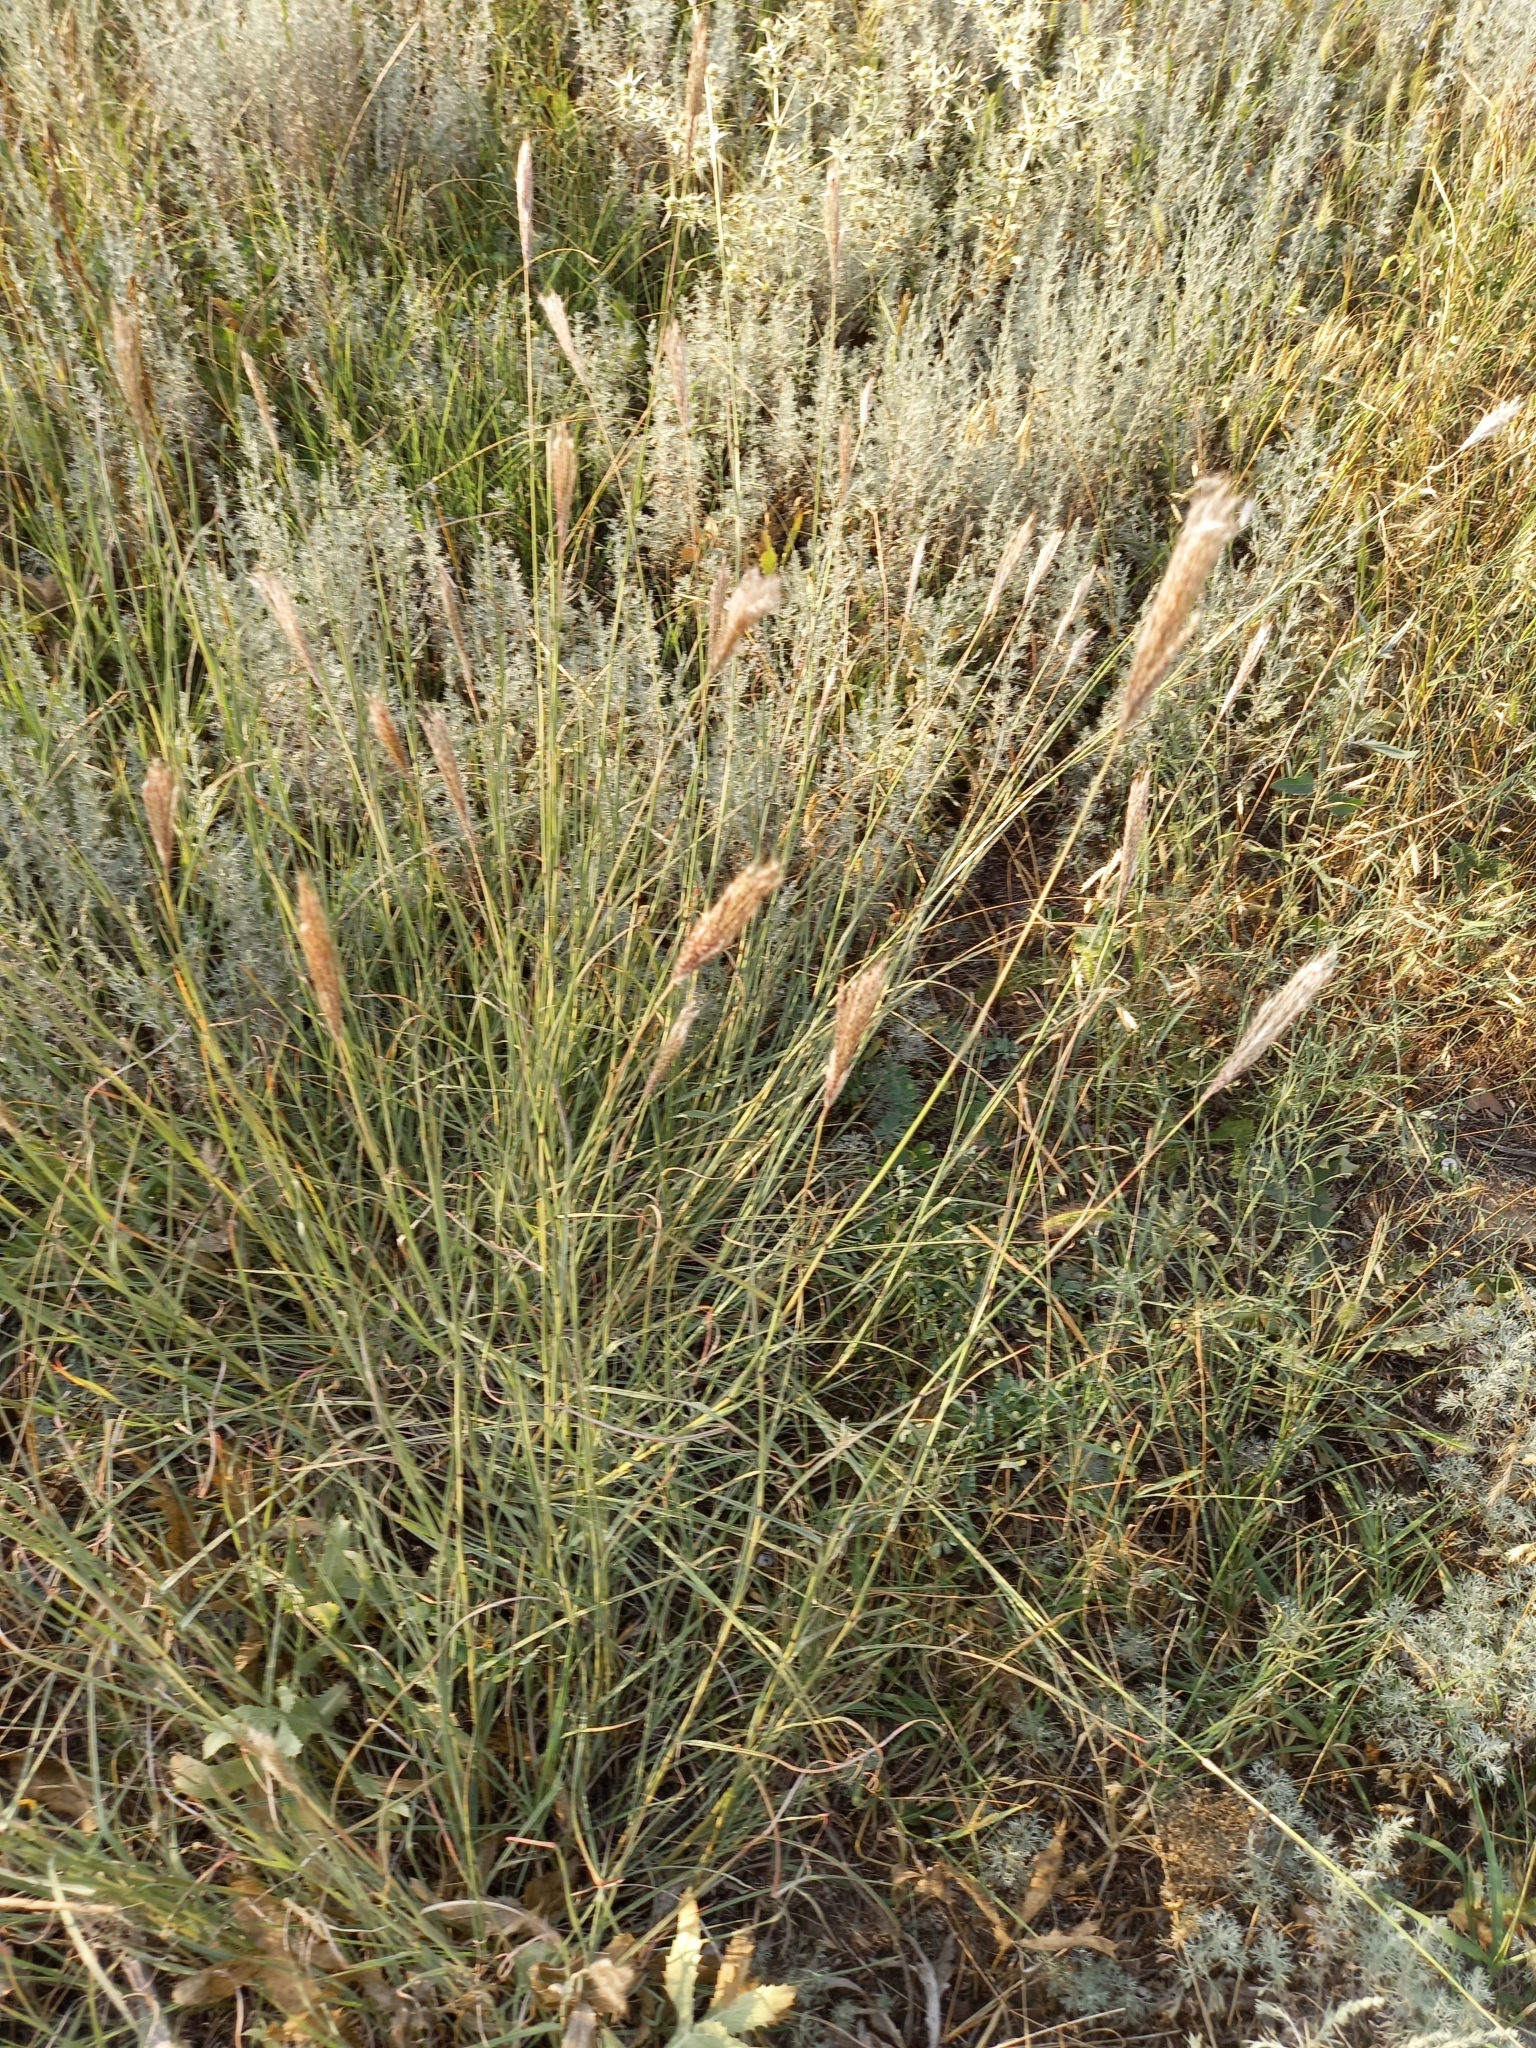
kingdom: Plantae
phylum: Tracheophyta
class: Liliopsida
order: Poales
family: Poaceae
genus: Bothriochloa
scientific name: Bothriochloa ischaemum
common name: Yellow bluestem
